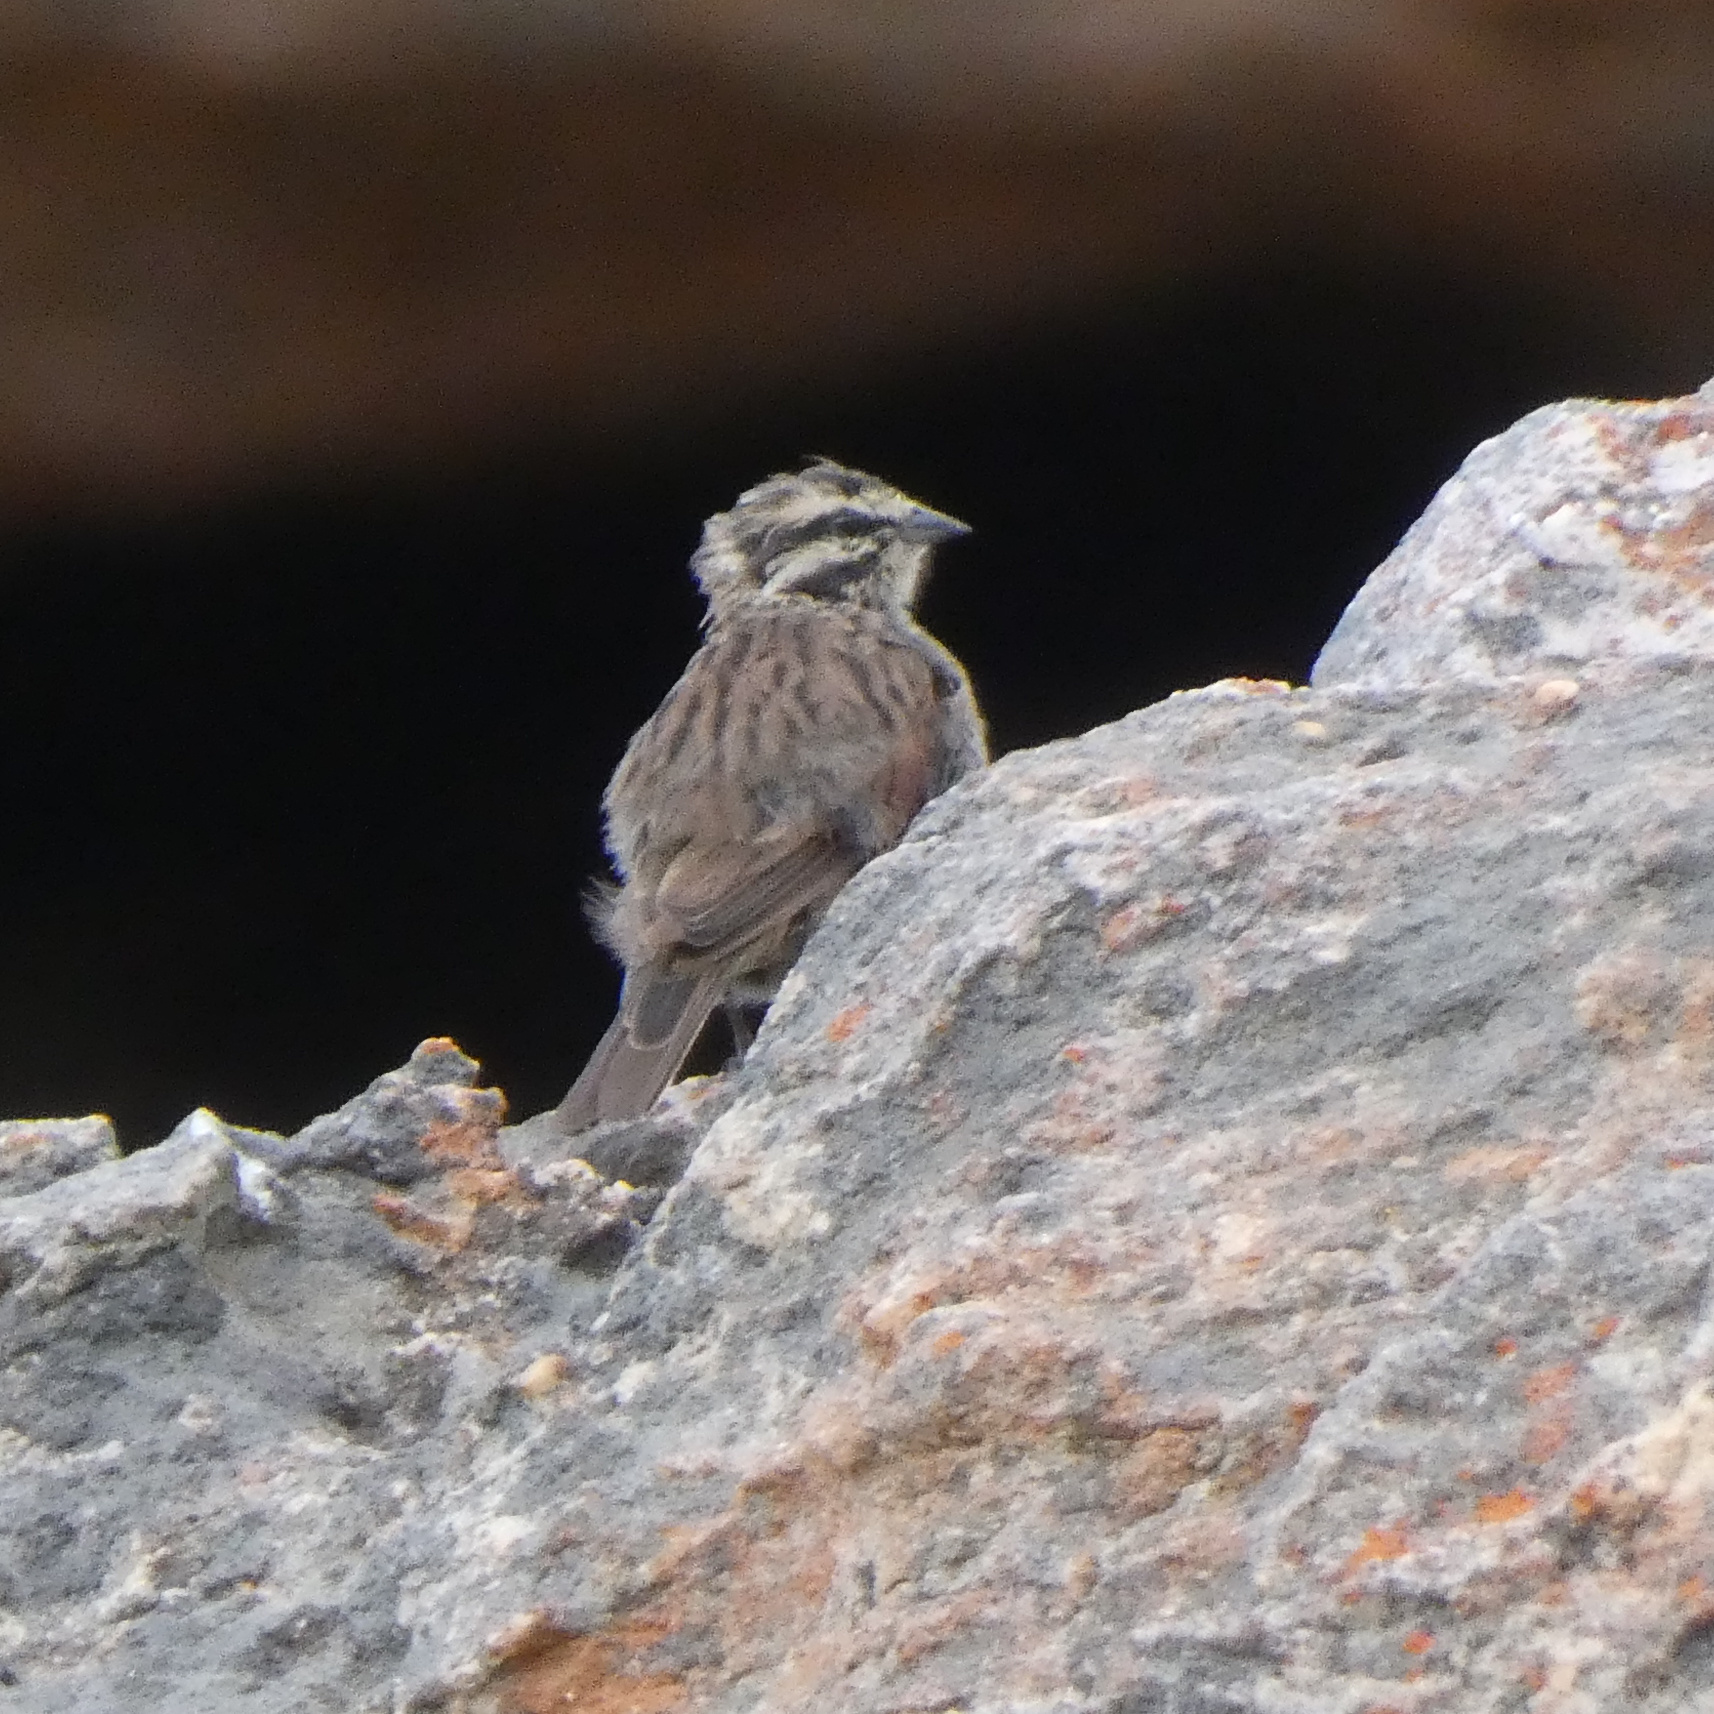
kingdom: Animalia
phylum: Chordata
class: Aves
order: Passeriformes
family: Emberizidae
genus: Emberiza
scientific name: Emberiza capensis
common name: Cape bunting
